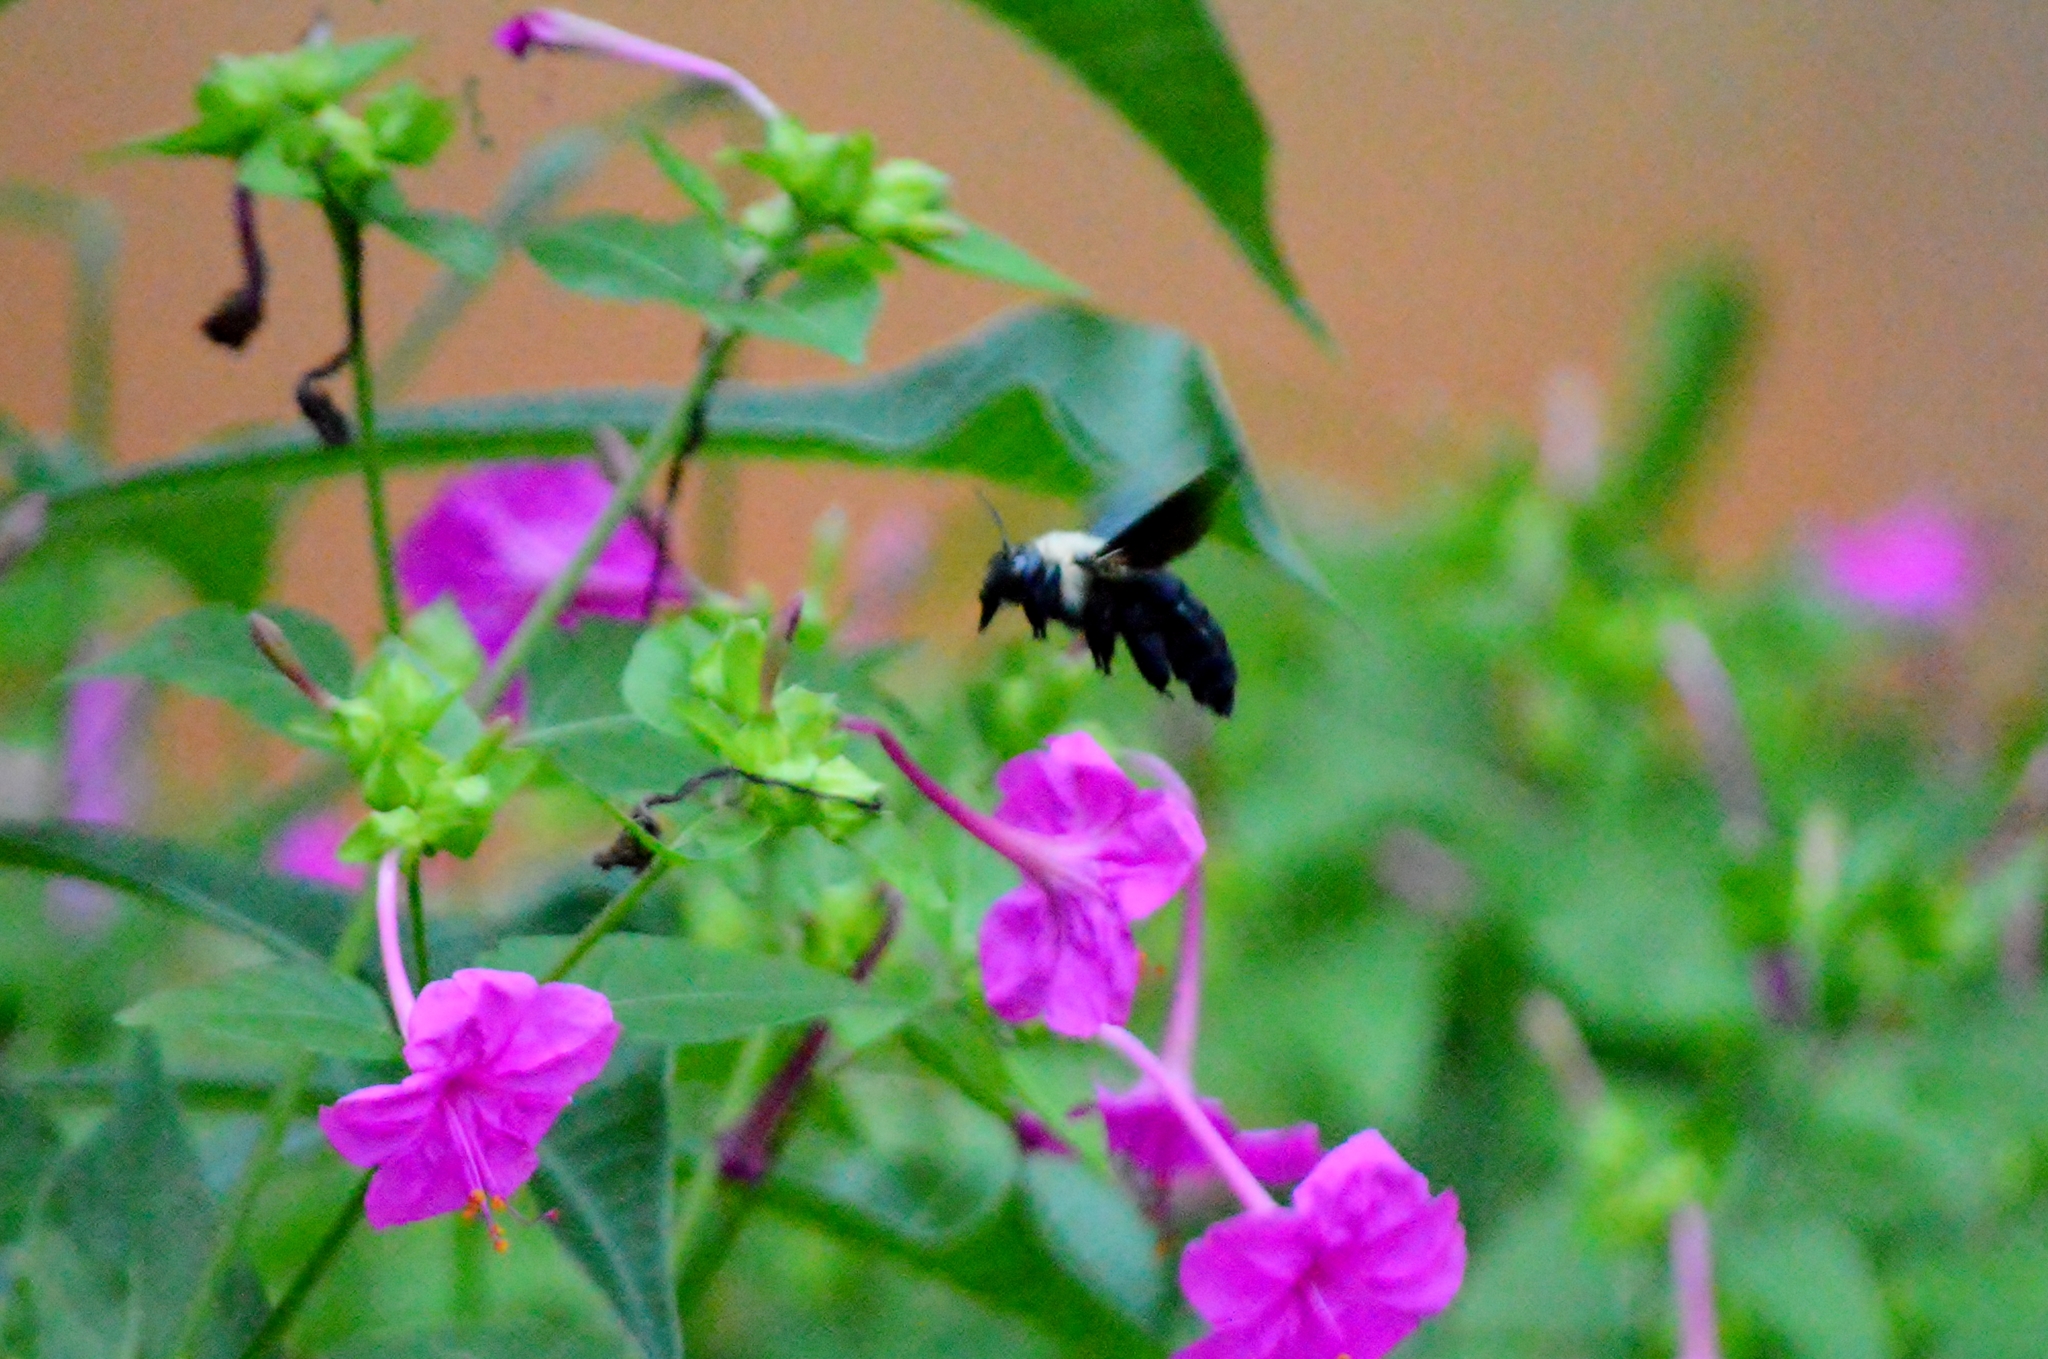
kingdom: Animalia
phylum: Arthropoda
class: Insecta
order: Hymenoptera
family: Apidae
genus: Xylocopa
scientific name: Xylocopa grisescens
